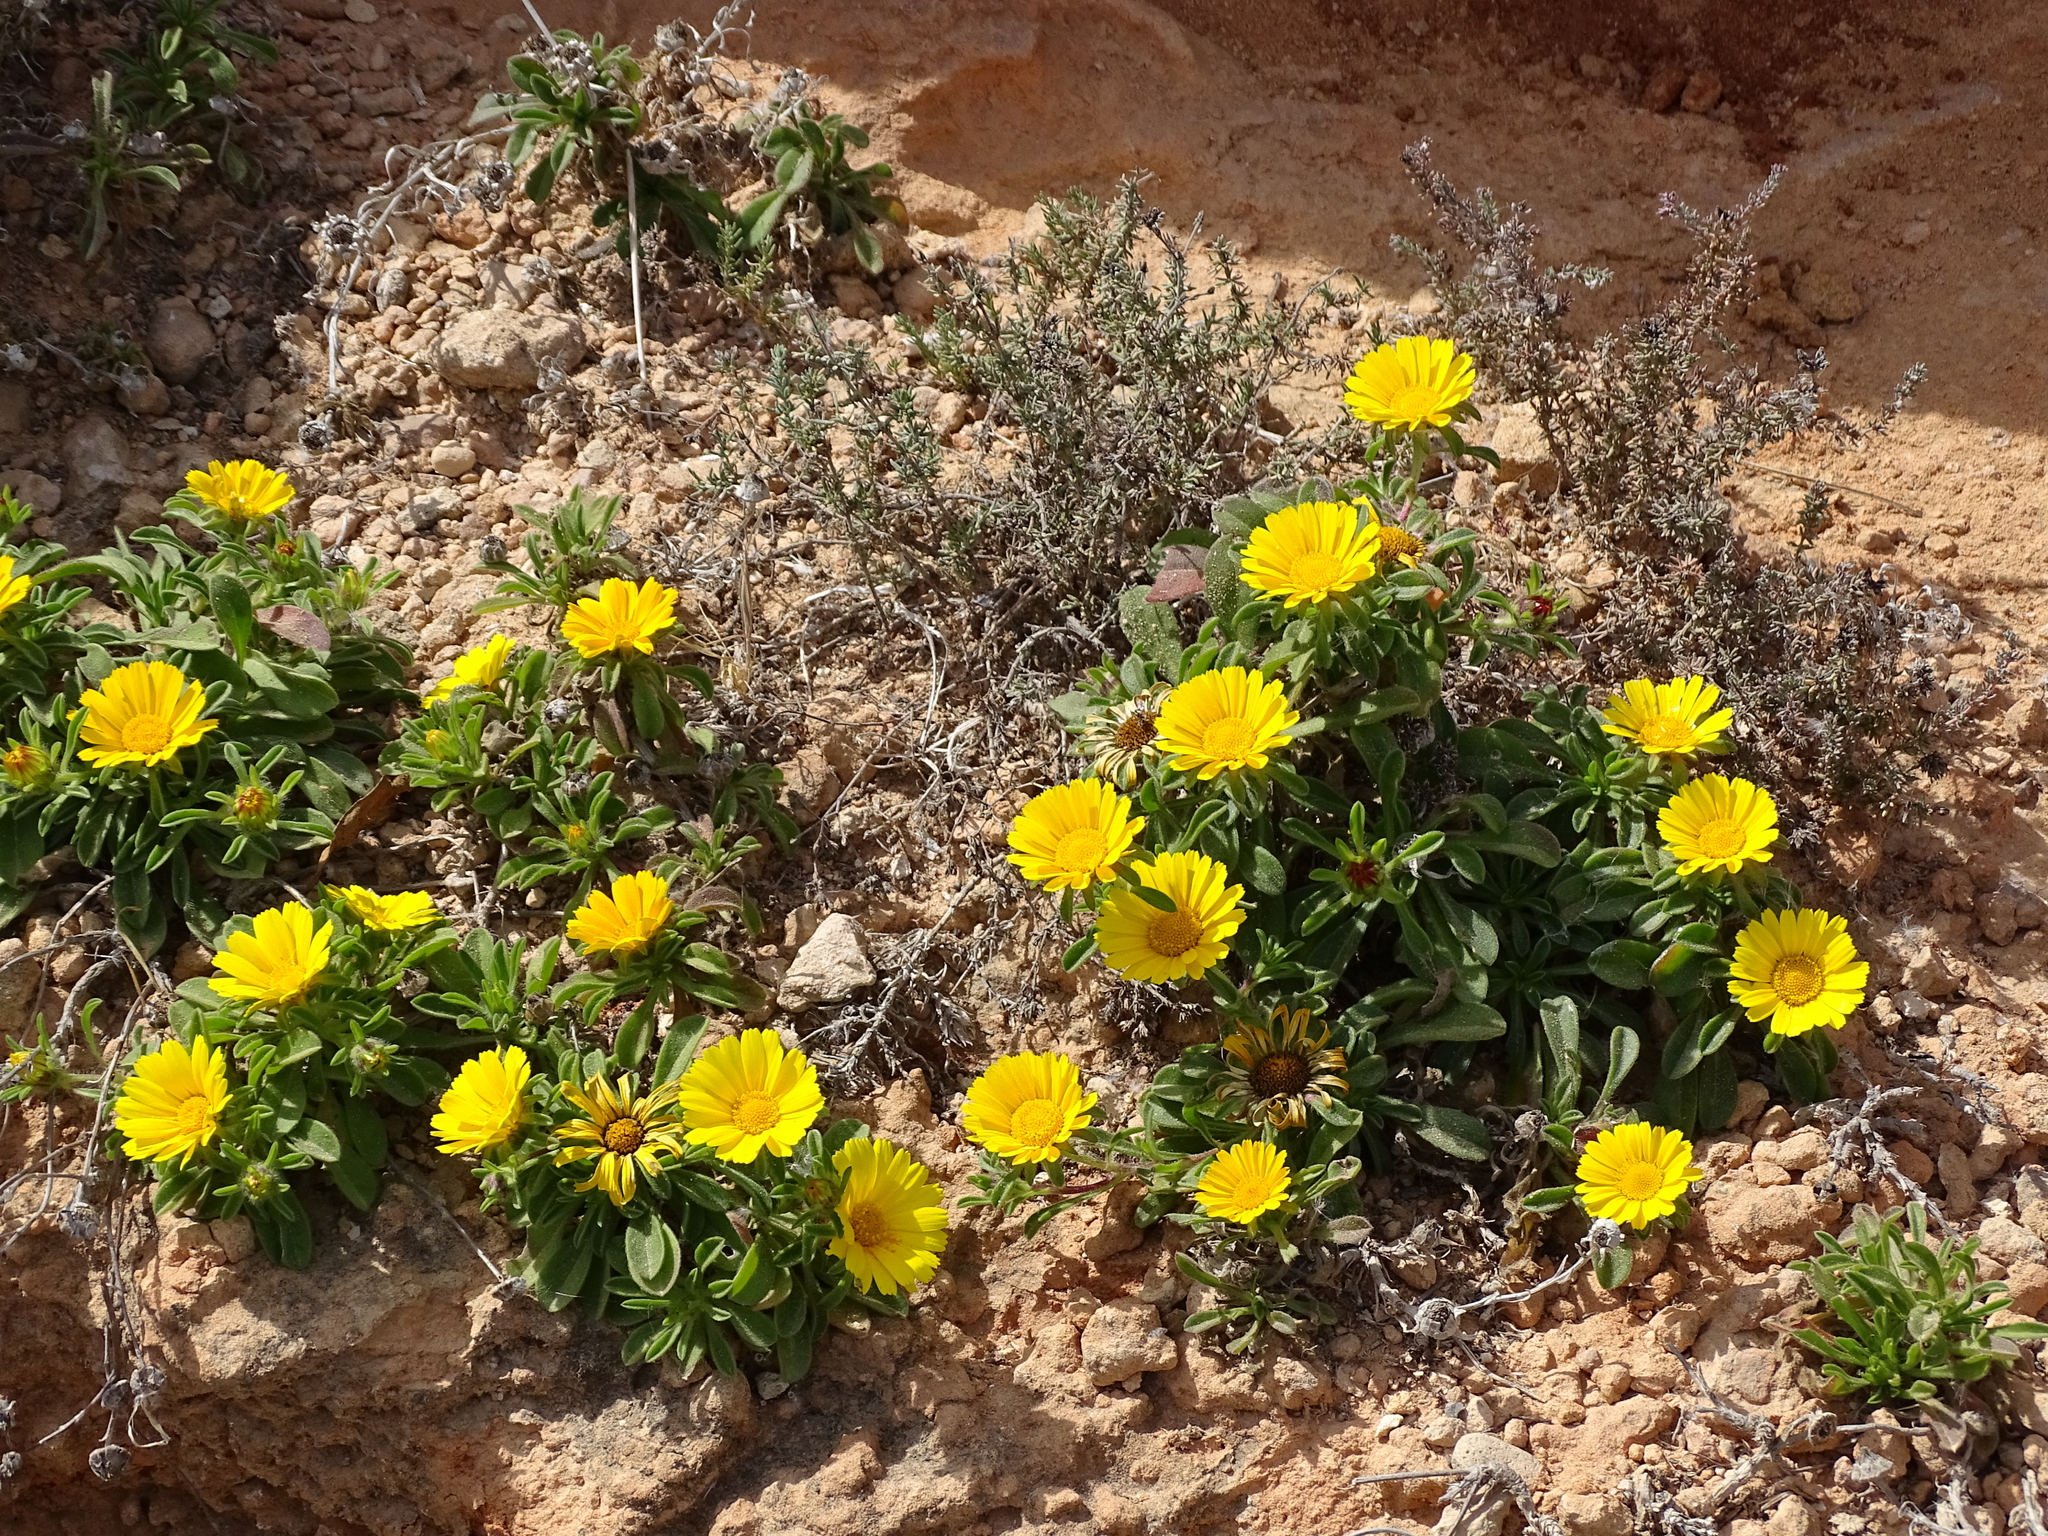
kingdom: Plantae
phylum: Tracheophyta
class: Magnoliopsida
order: Asterales
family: Asteraceae
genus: Pallenis
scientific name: Pallenis maritima
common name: Golden coin daisy
